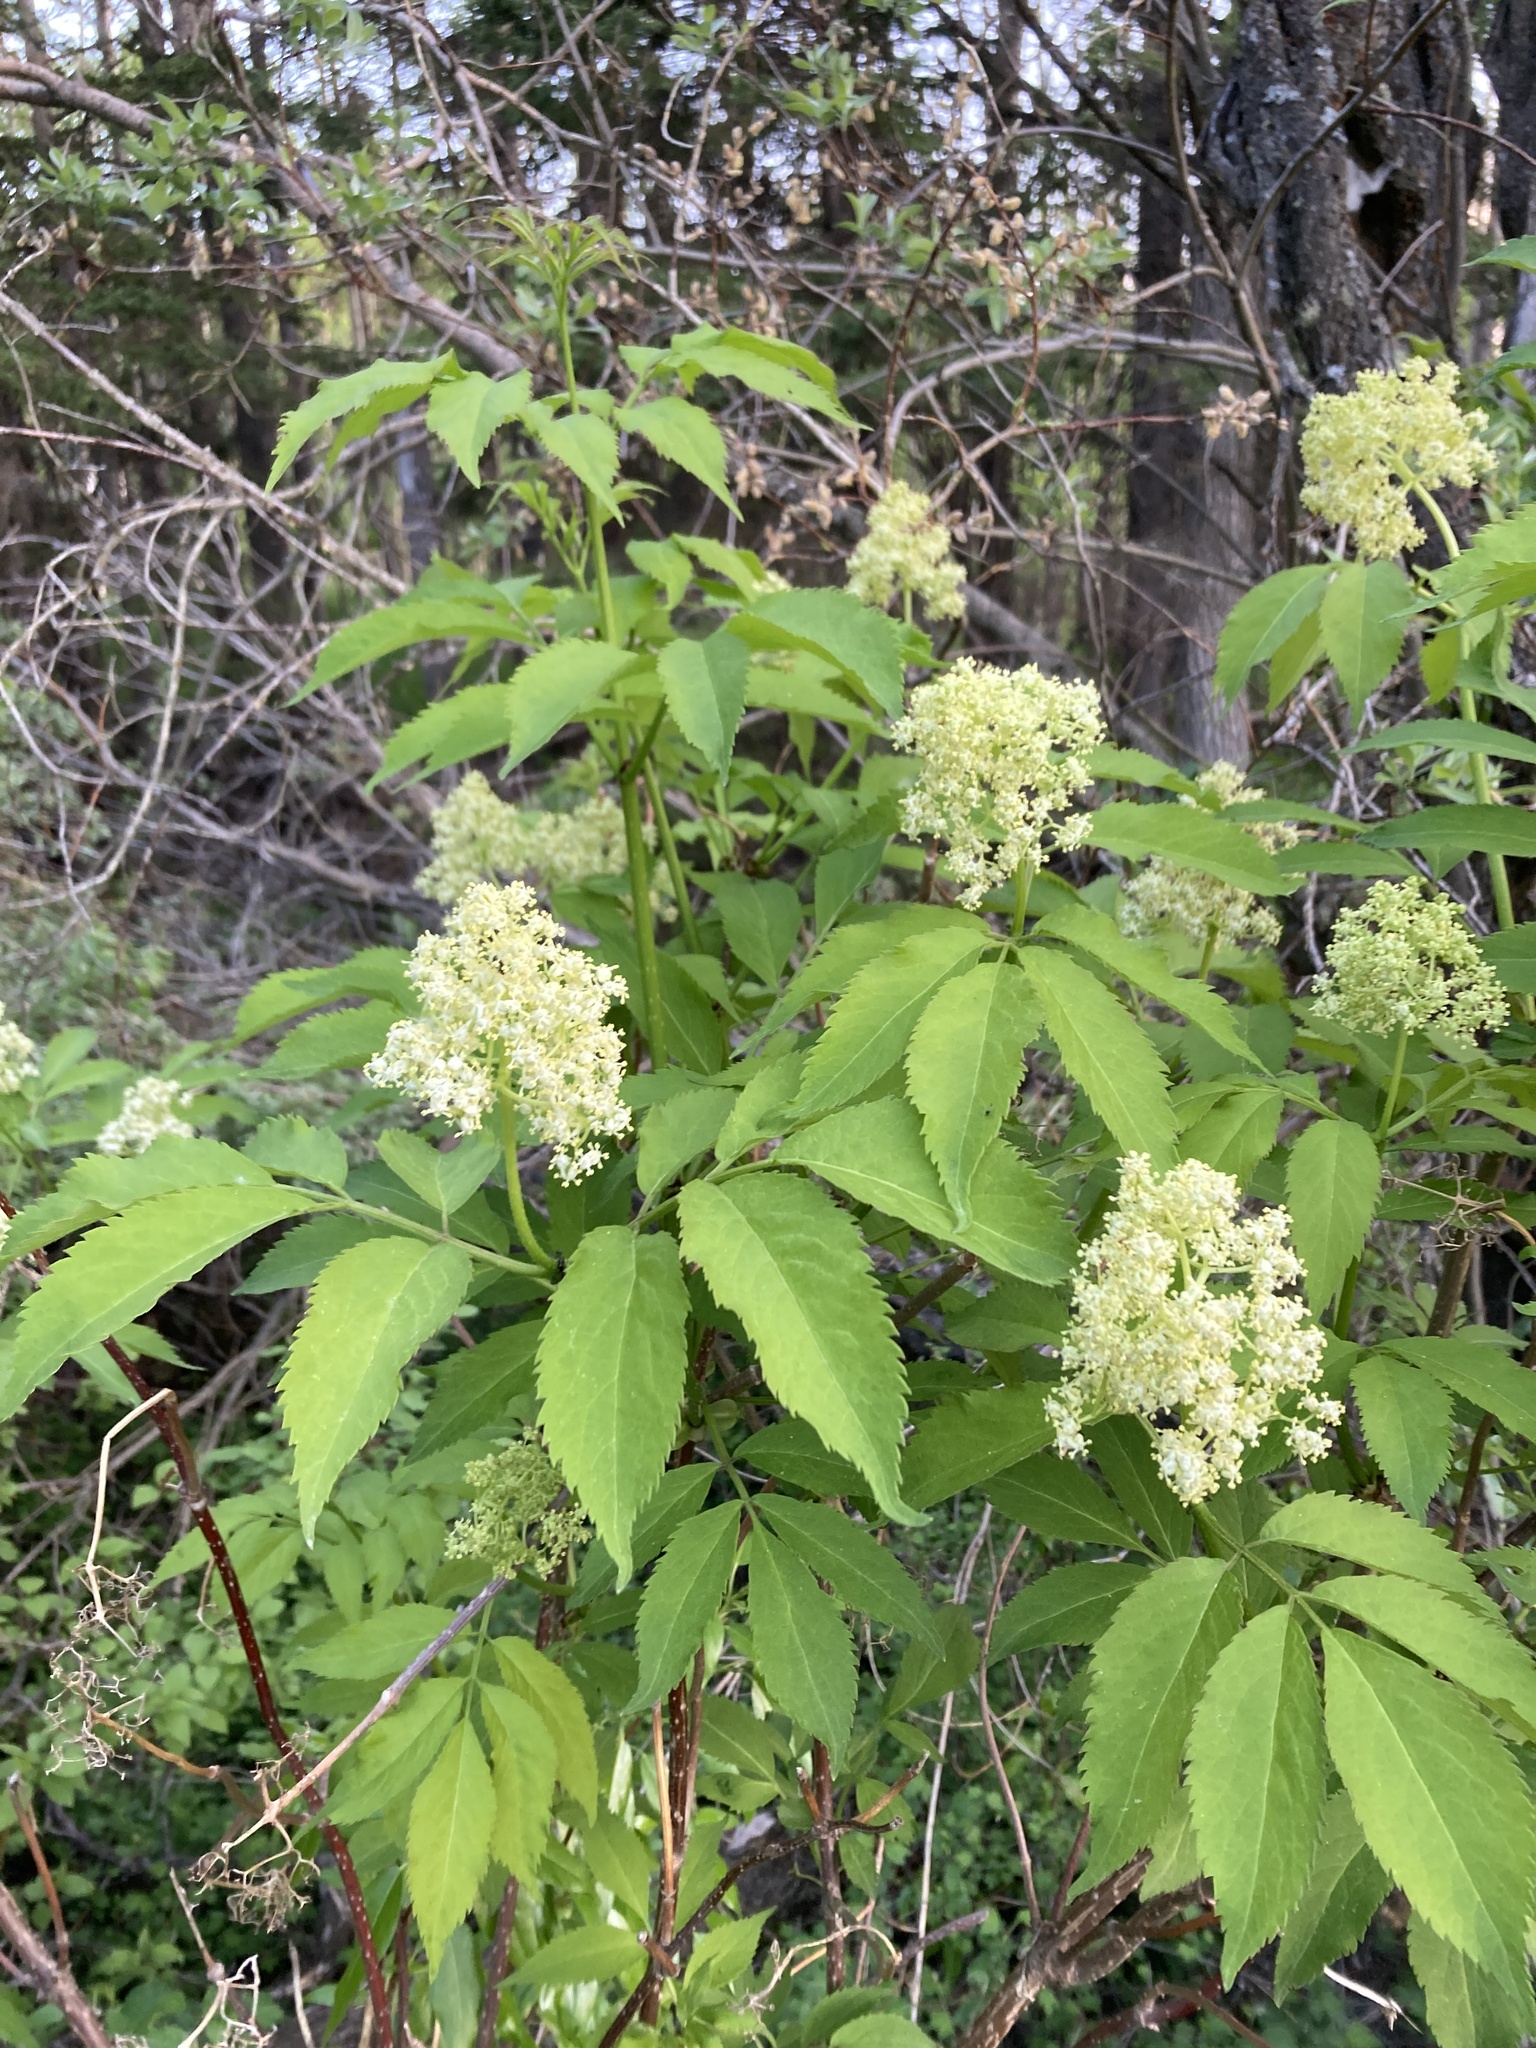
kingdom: Plantae
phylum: Tracheophyta
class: Magnoliopsida
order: Dipsacales
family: Viburnaceae
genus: Sambucus
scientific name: Sambucus racemosa
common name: Red-berried elder
